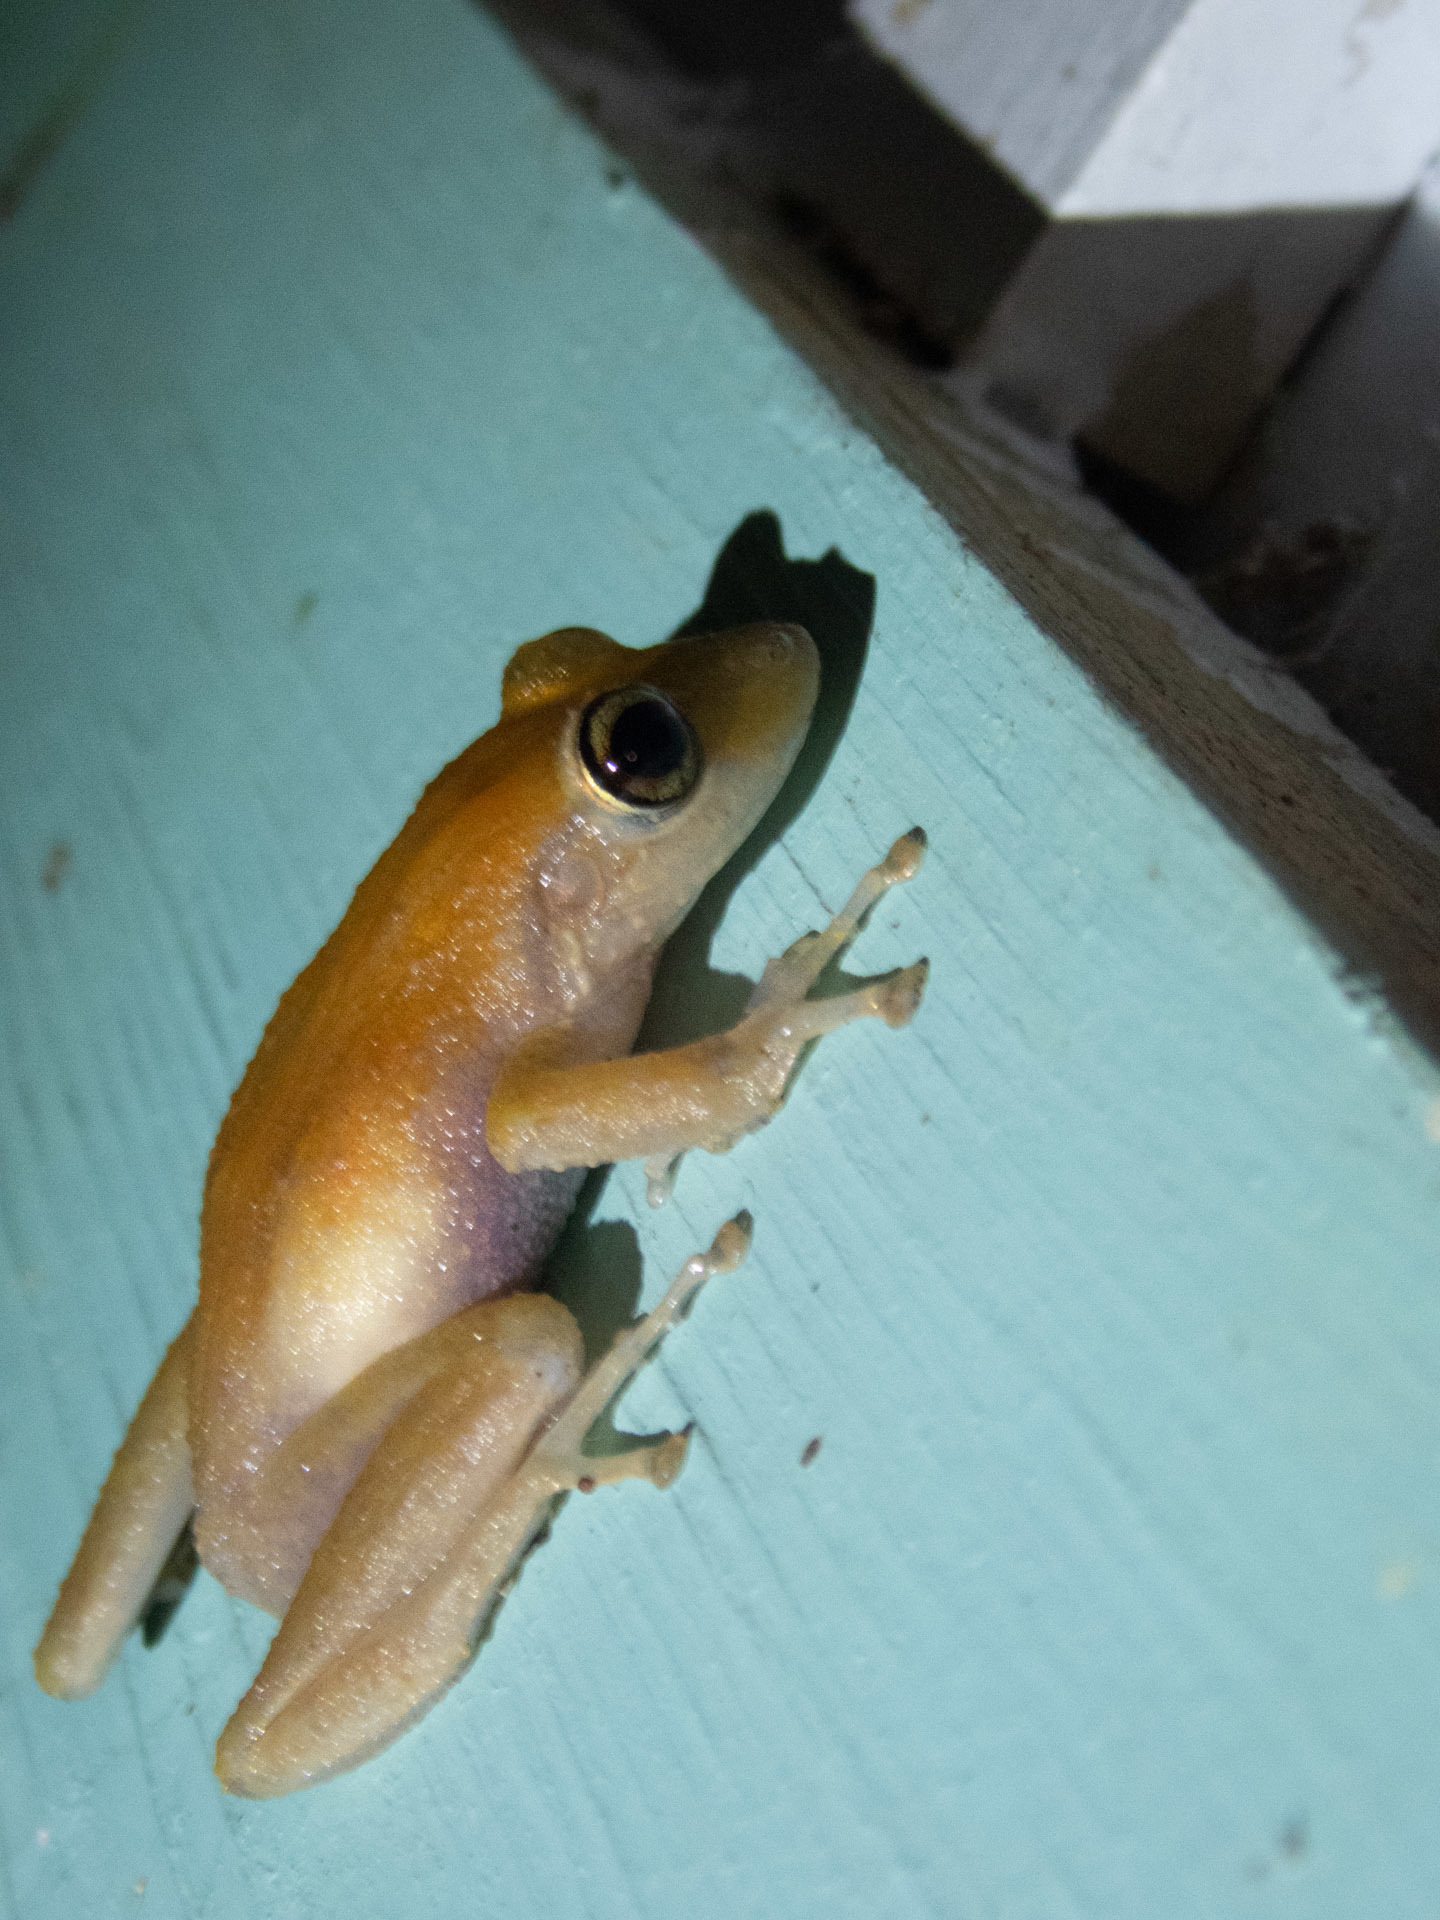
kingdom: Animalia
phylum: Chordata
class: Amphibia
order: Anura
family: Eleutherodactylidae
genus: Eleutherodactylus
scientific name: Eleutherodactylus coqui
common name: Coqui frog
